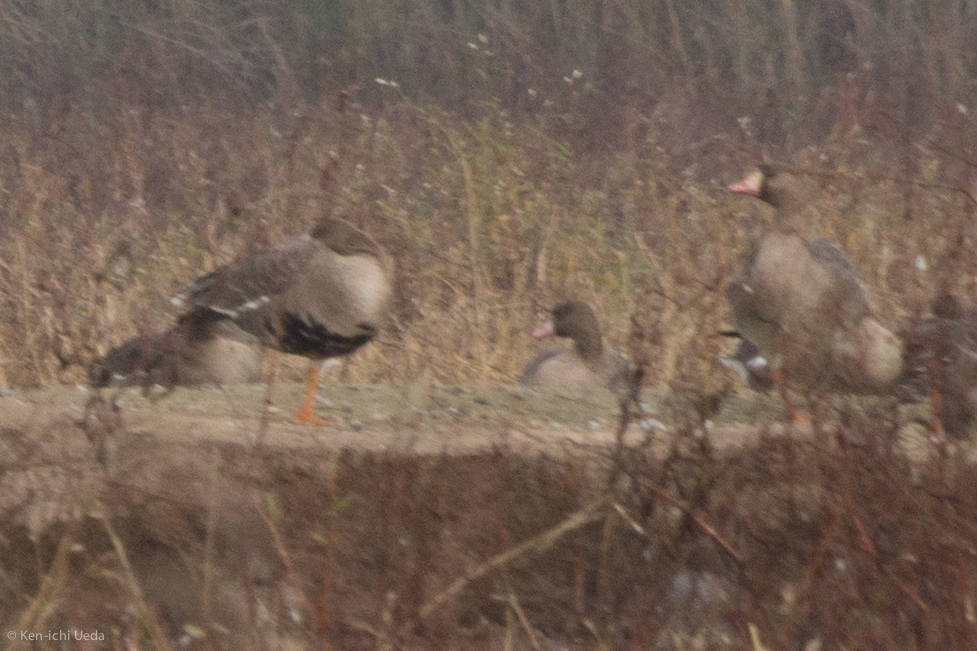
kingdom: Animalia
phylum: Chordata
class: Aves
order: Anseriformes
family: Anatidae
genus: Anser
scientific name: Anser albifrons
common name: Greater white-fronted goose
